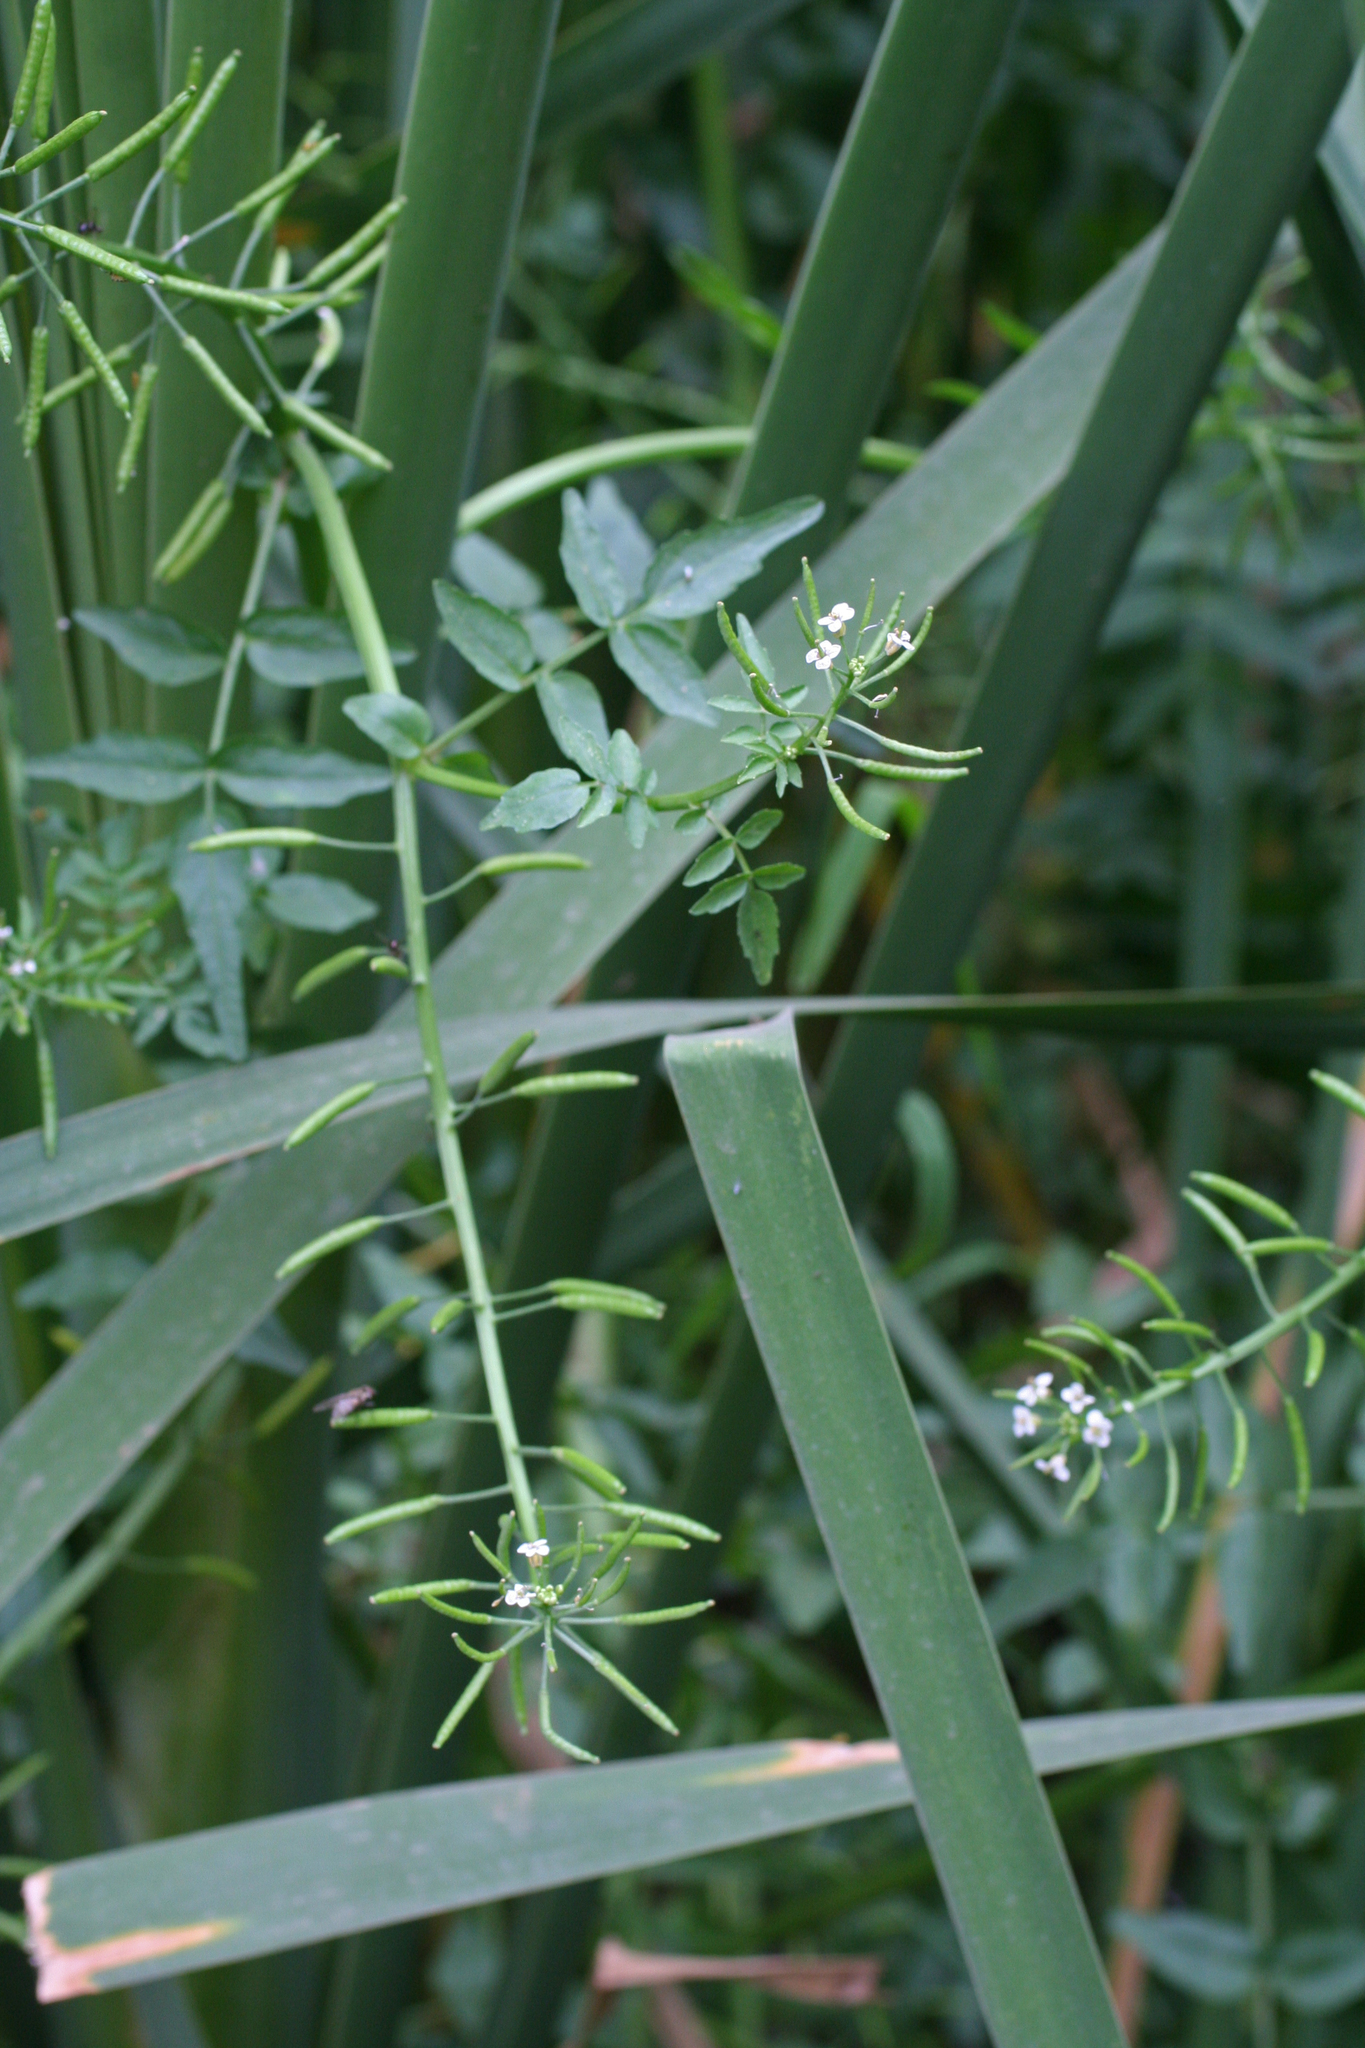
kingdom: Plantae
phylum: Tracheophyta
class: Magnoliopsida
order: Brassicales
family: Brassicaceae
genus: Nasturtium
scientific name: Nasturtium officinale
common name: Watercress
